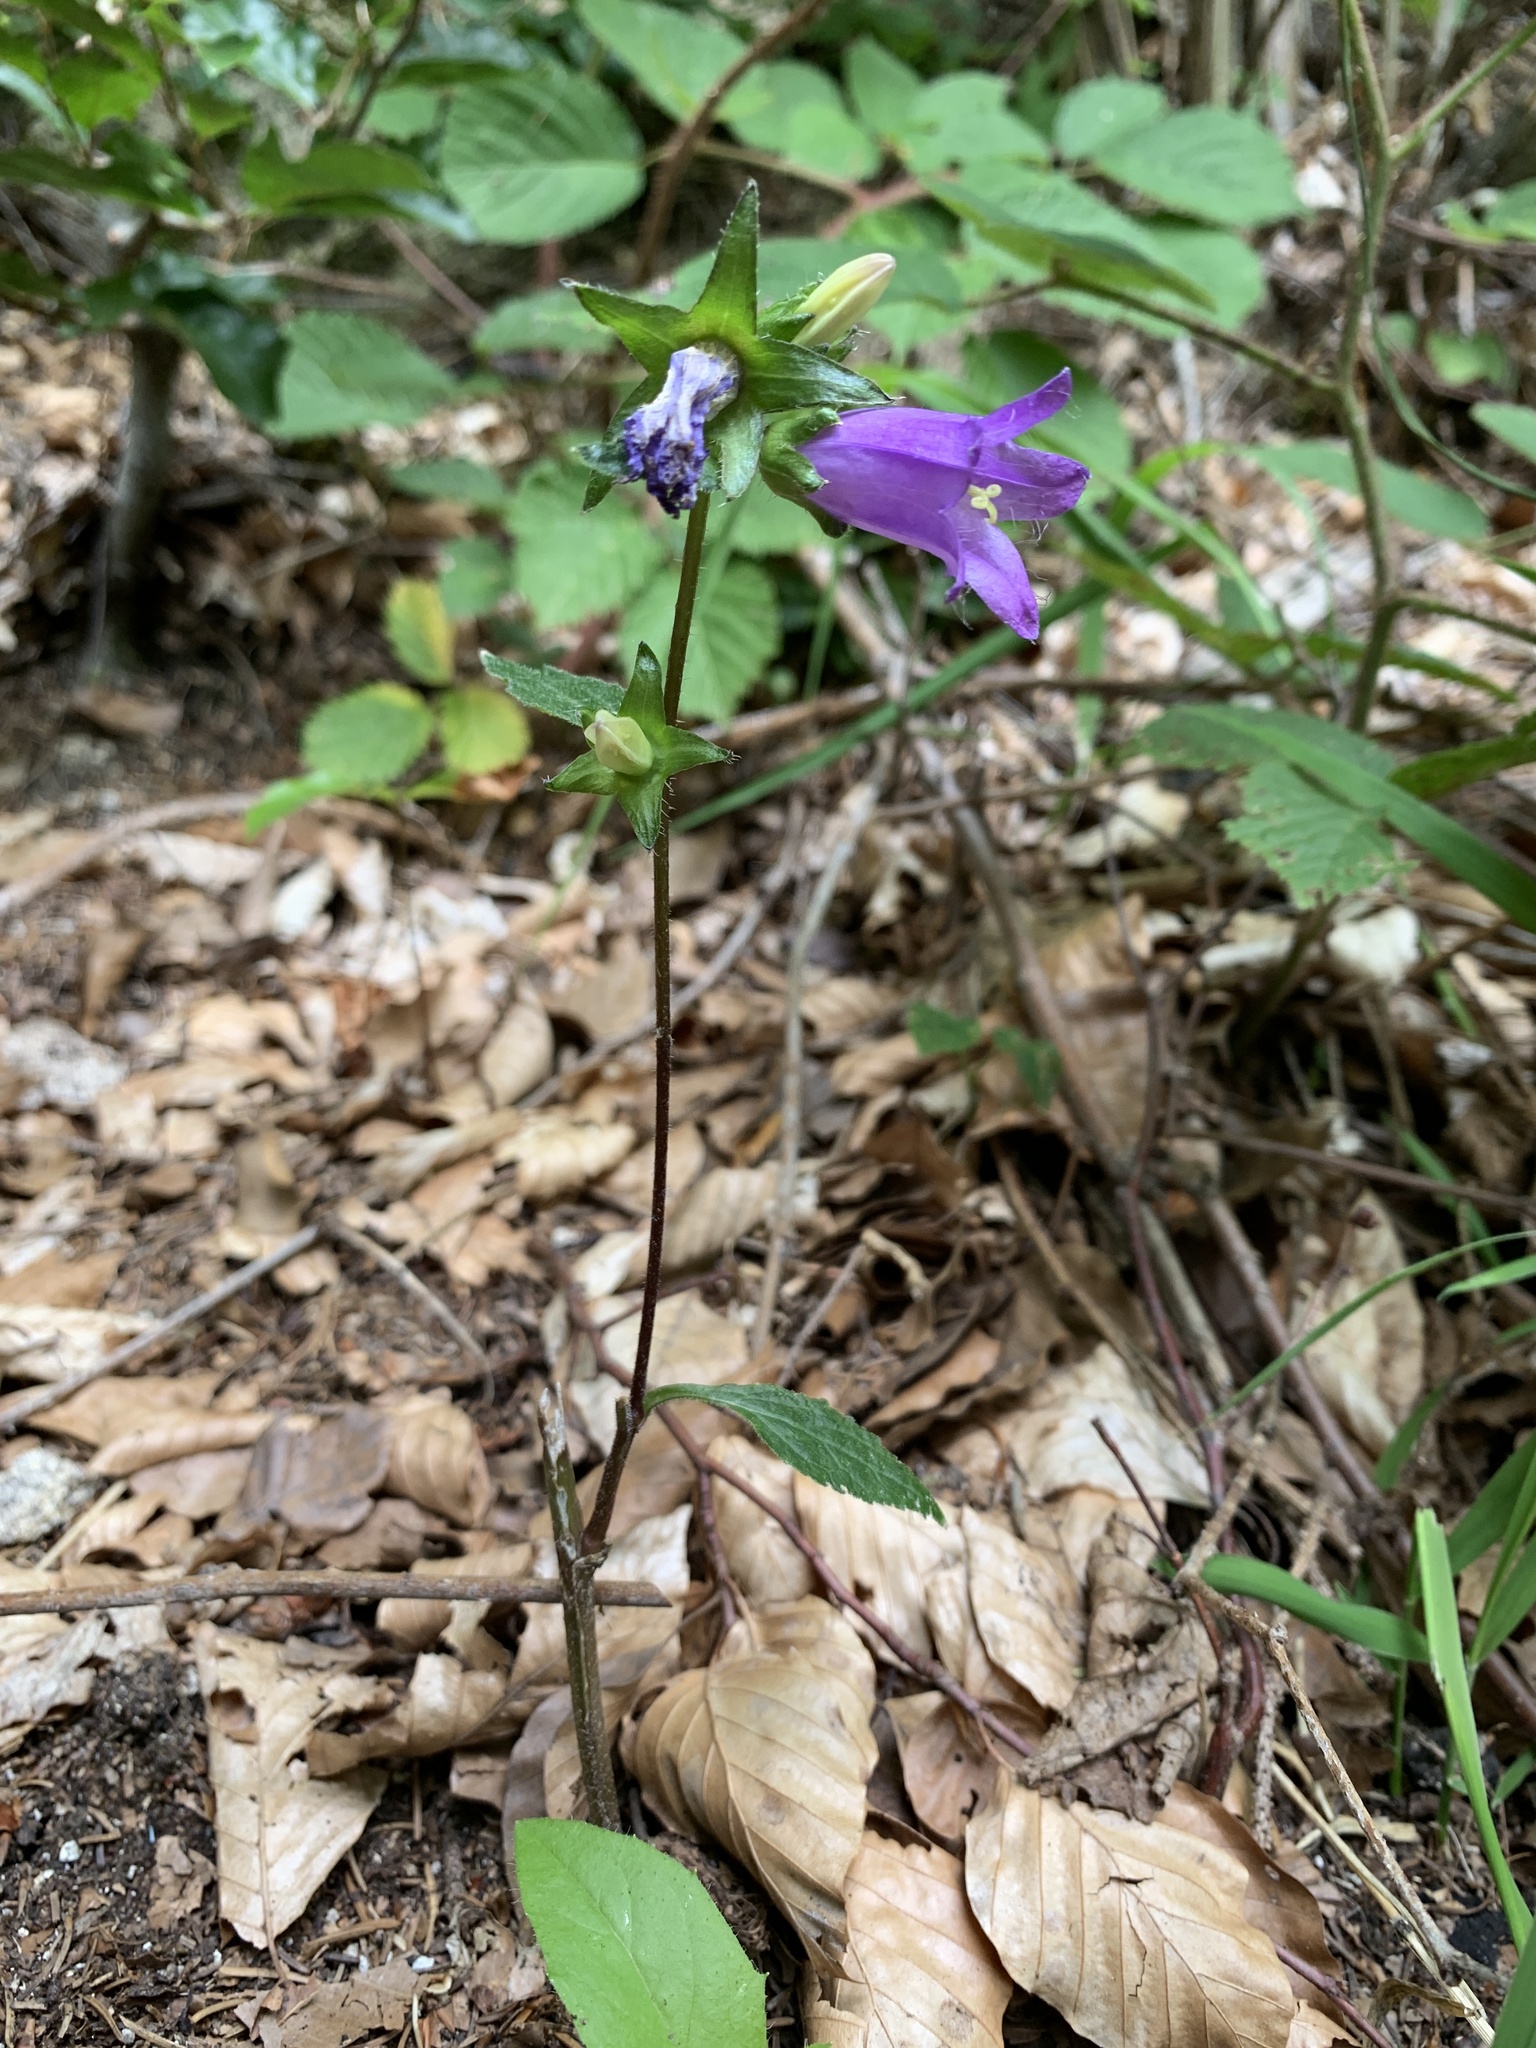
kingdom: Plantae
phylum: Tracheophyta
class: Magnoliopsida
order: Asterales
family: Campanulaceae
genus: Campanula
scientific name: Campanula trachelium
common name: Nettle-leaved bellflower
